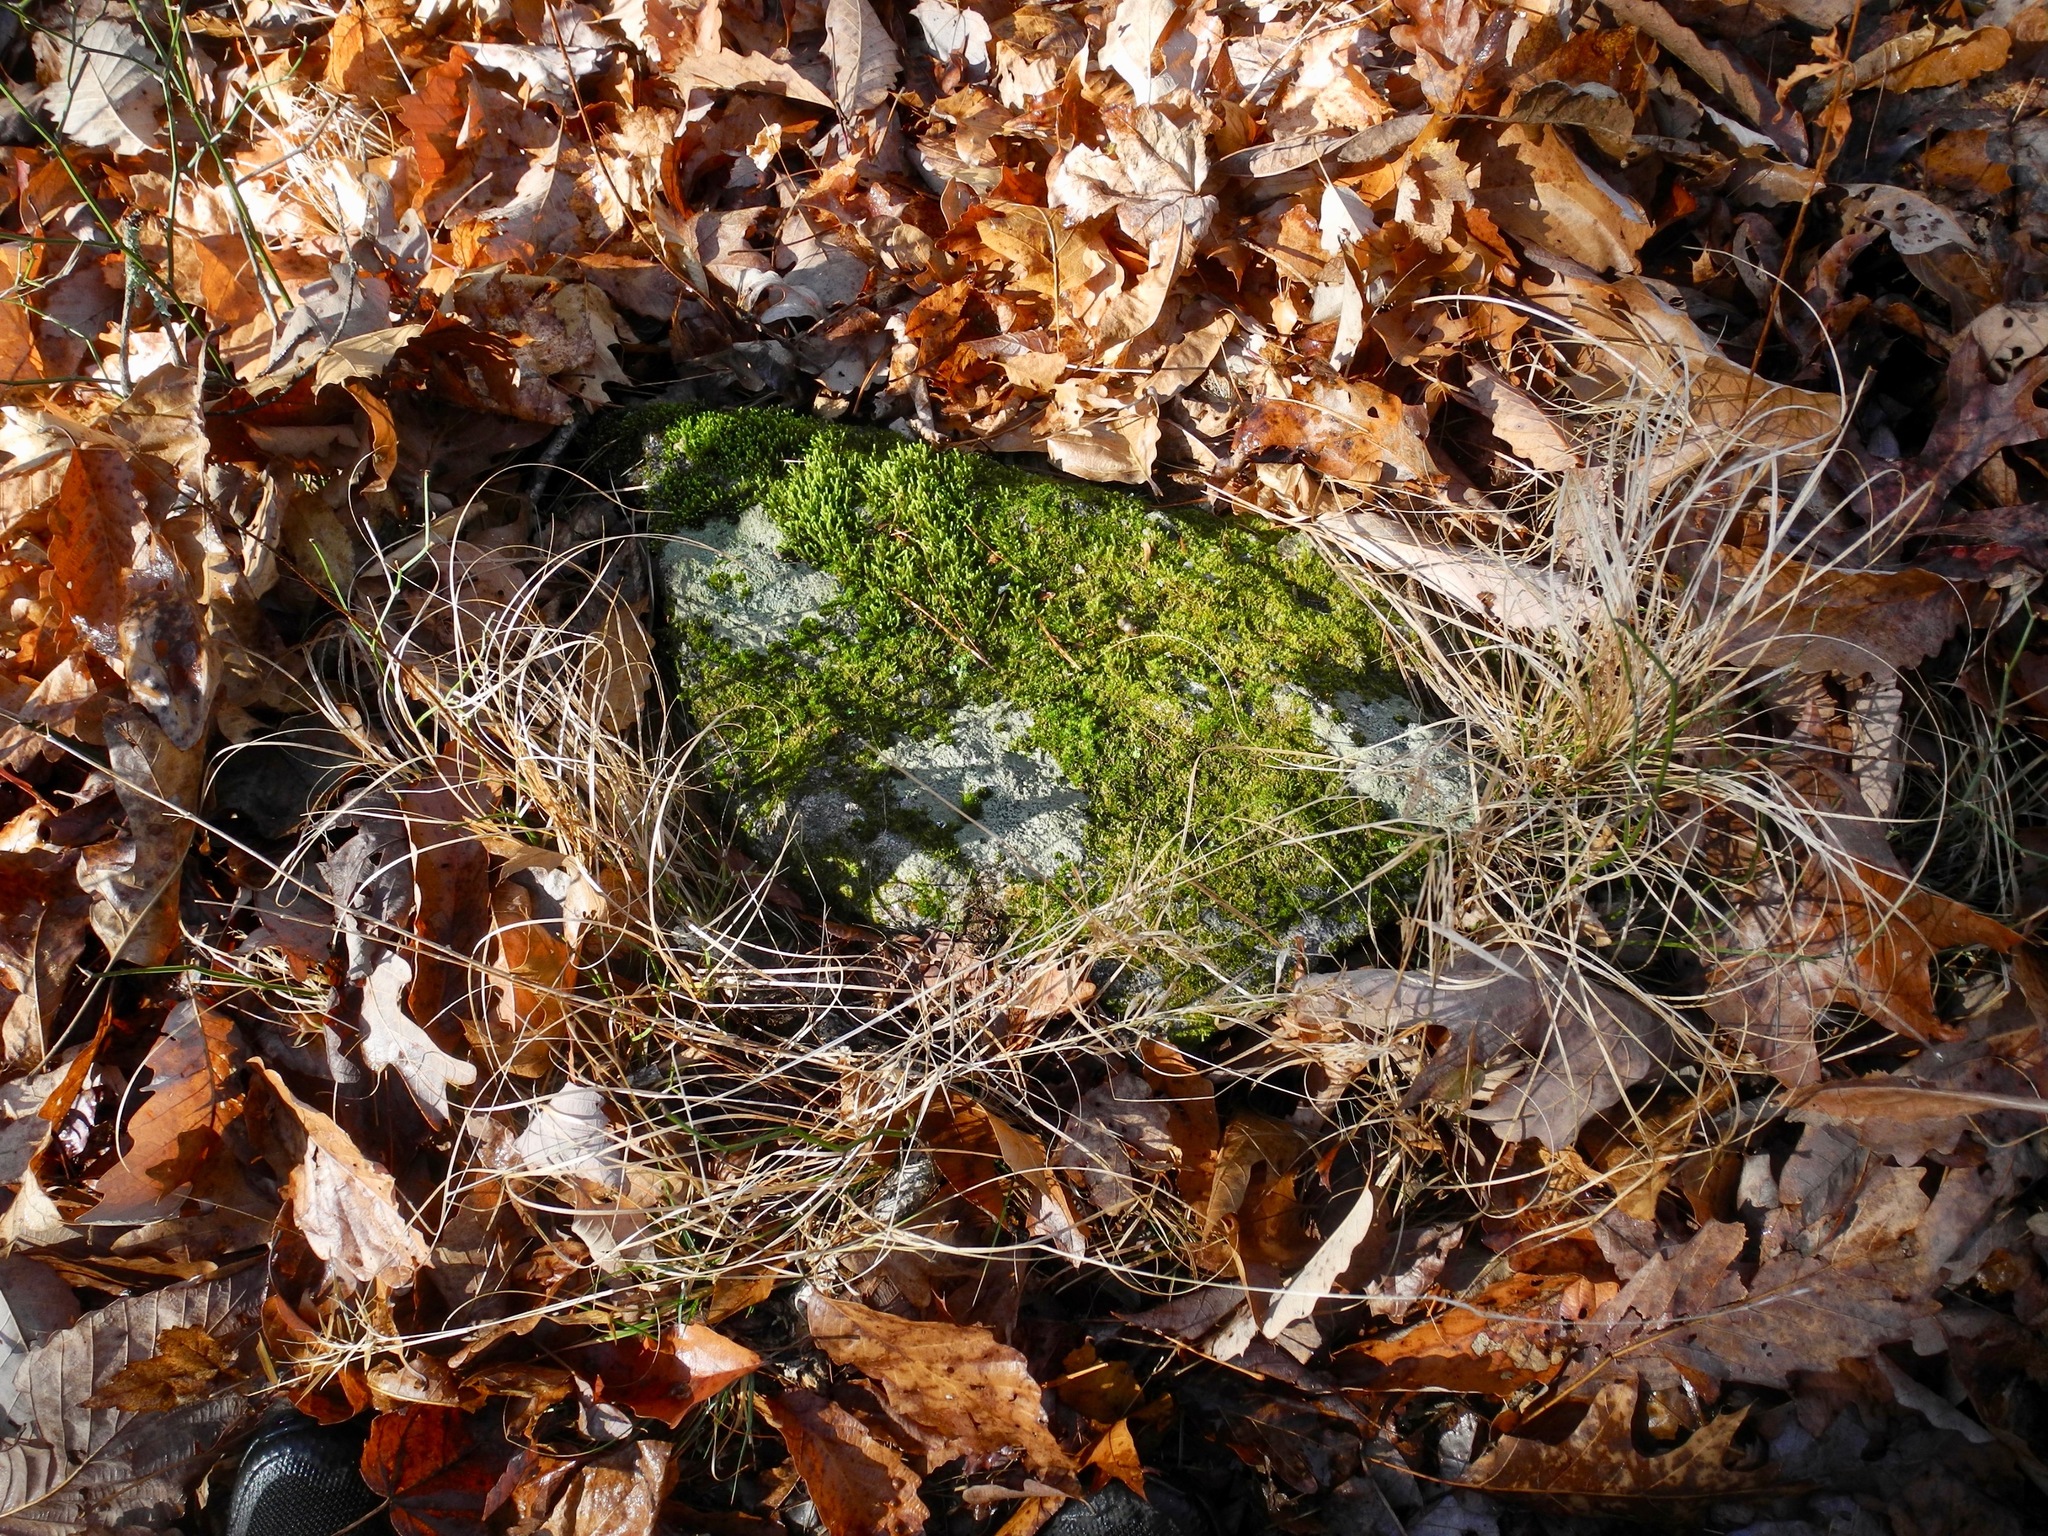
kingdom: Fungi
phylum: Ascomycota
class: Lecanoromycetes
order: Lecideales
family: Lecideaceae
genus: Porpidia
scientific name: Porpidia albocaerulescens
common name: Smokey-eyed boulder lichen
